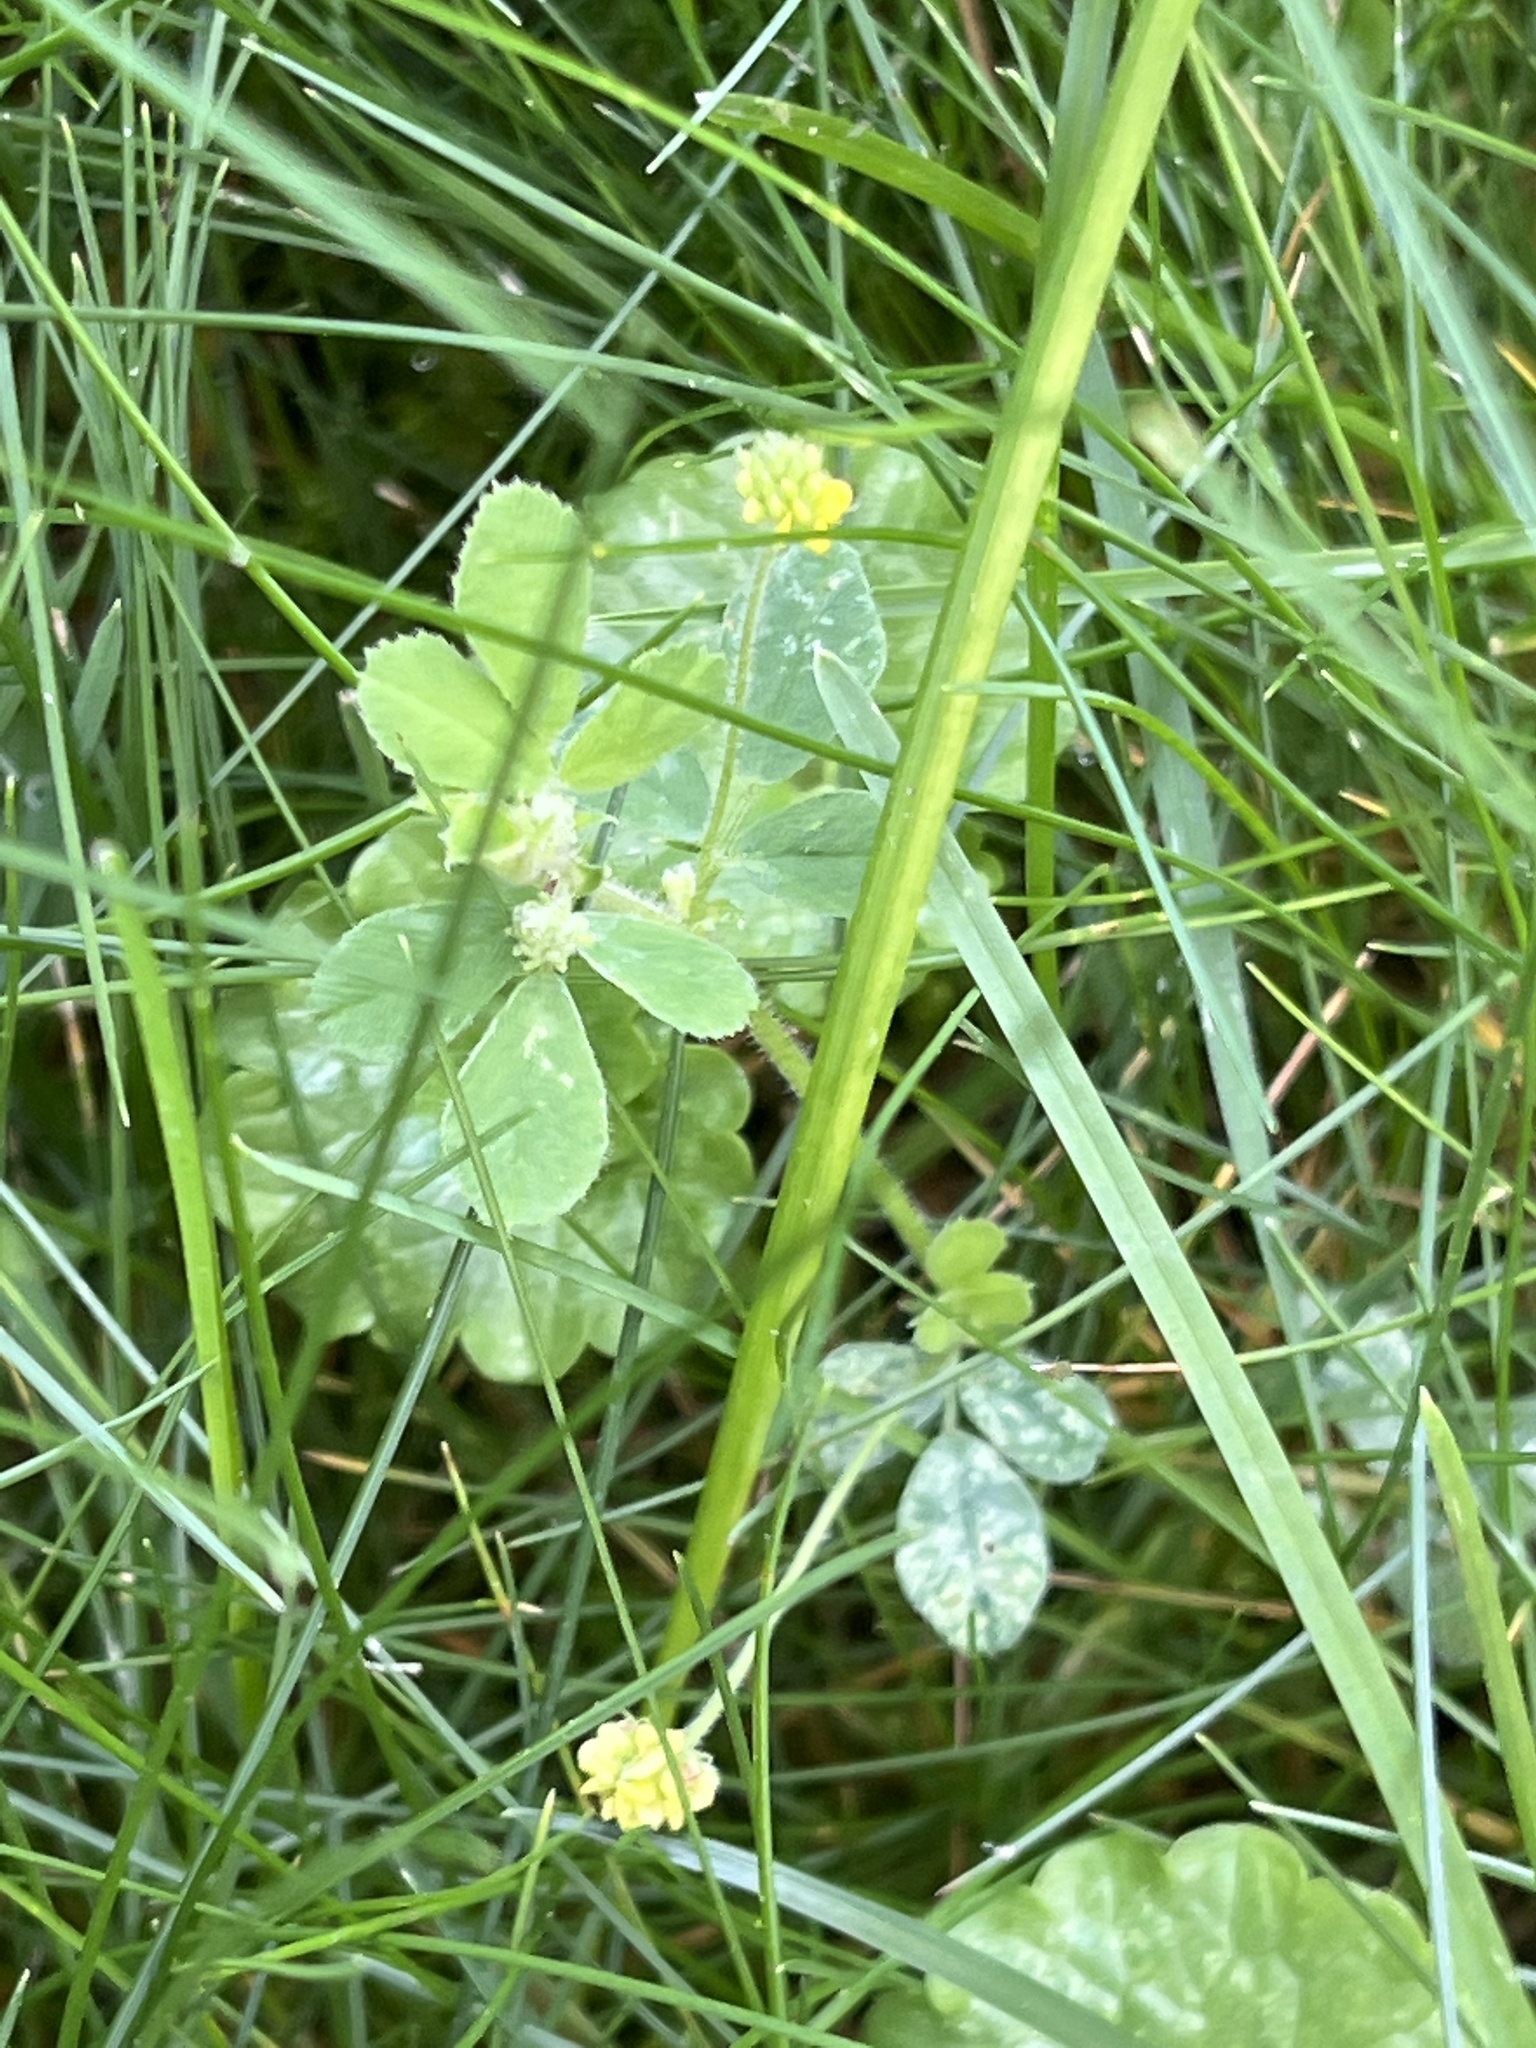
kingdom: Plantae
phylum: Tracheophyta
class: Magnoliopsida
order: Fabales
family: Fabaceae
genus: Medicago
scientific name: Medicago lupulina
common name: Black medick
